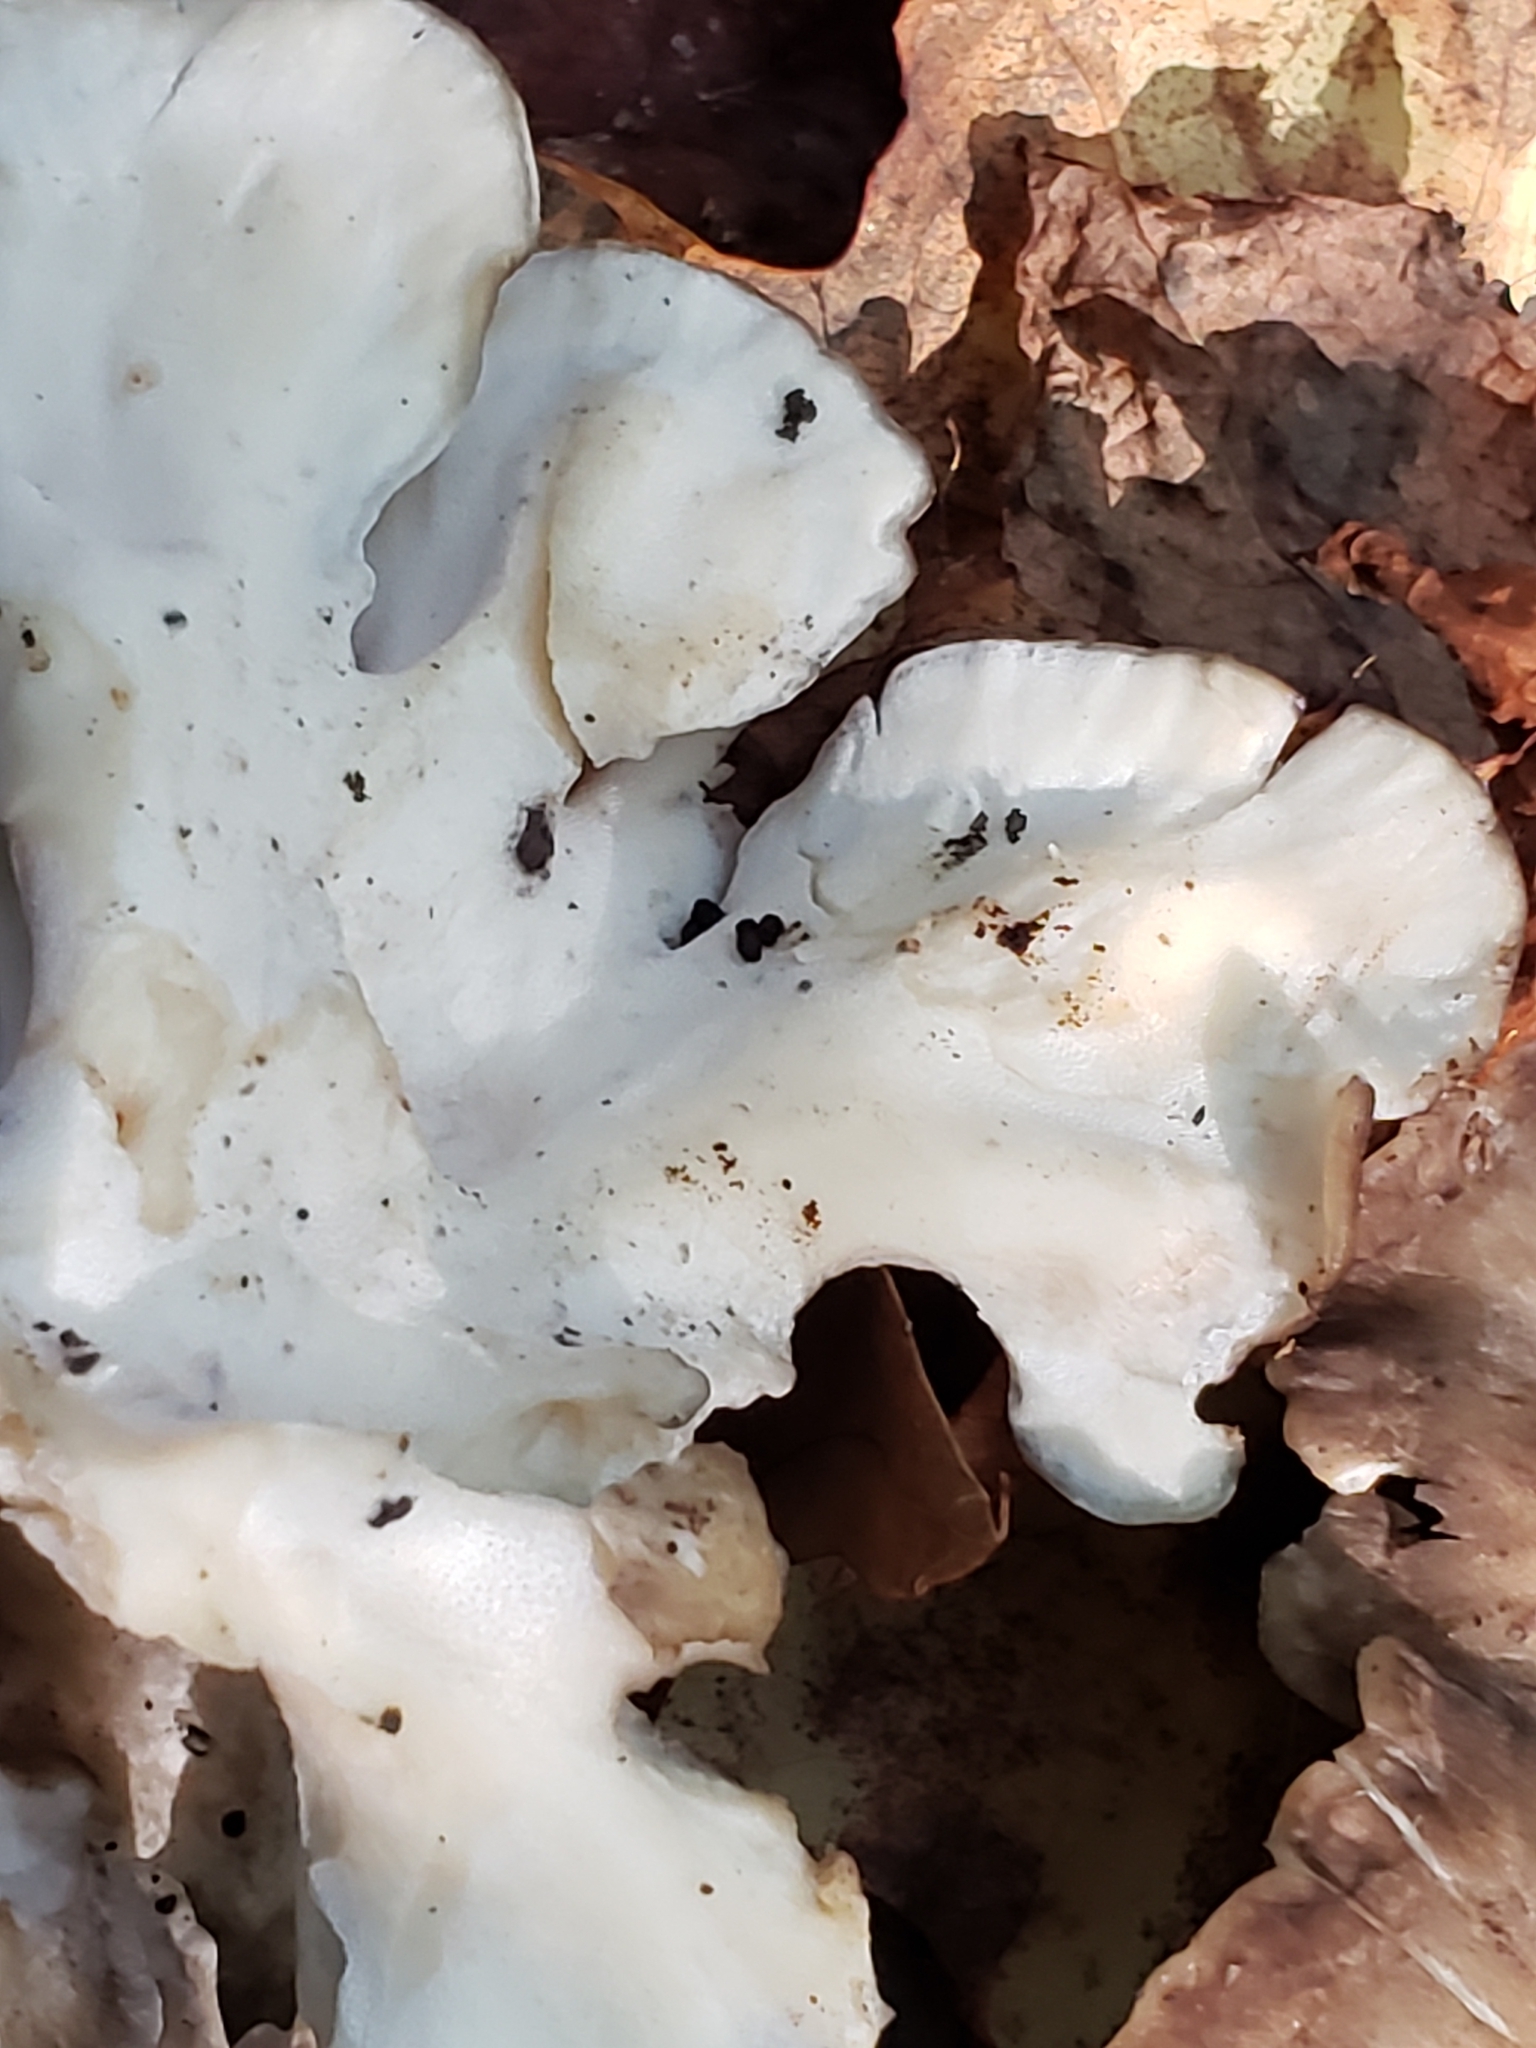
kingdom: Fungi
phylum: Basidiomycota
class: Agaricomycetes
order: Polyporales
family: Grifolaceae
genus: Grifola
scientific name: Grifola frondosa
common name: Hen of the woods
